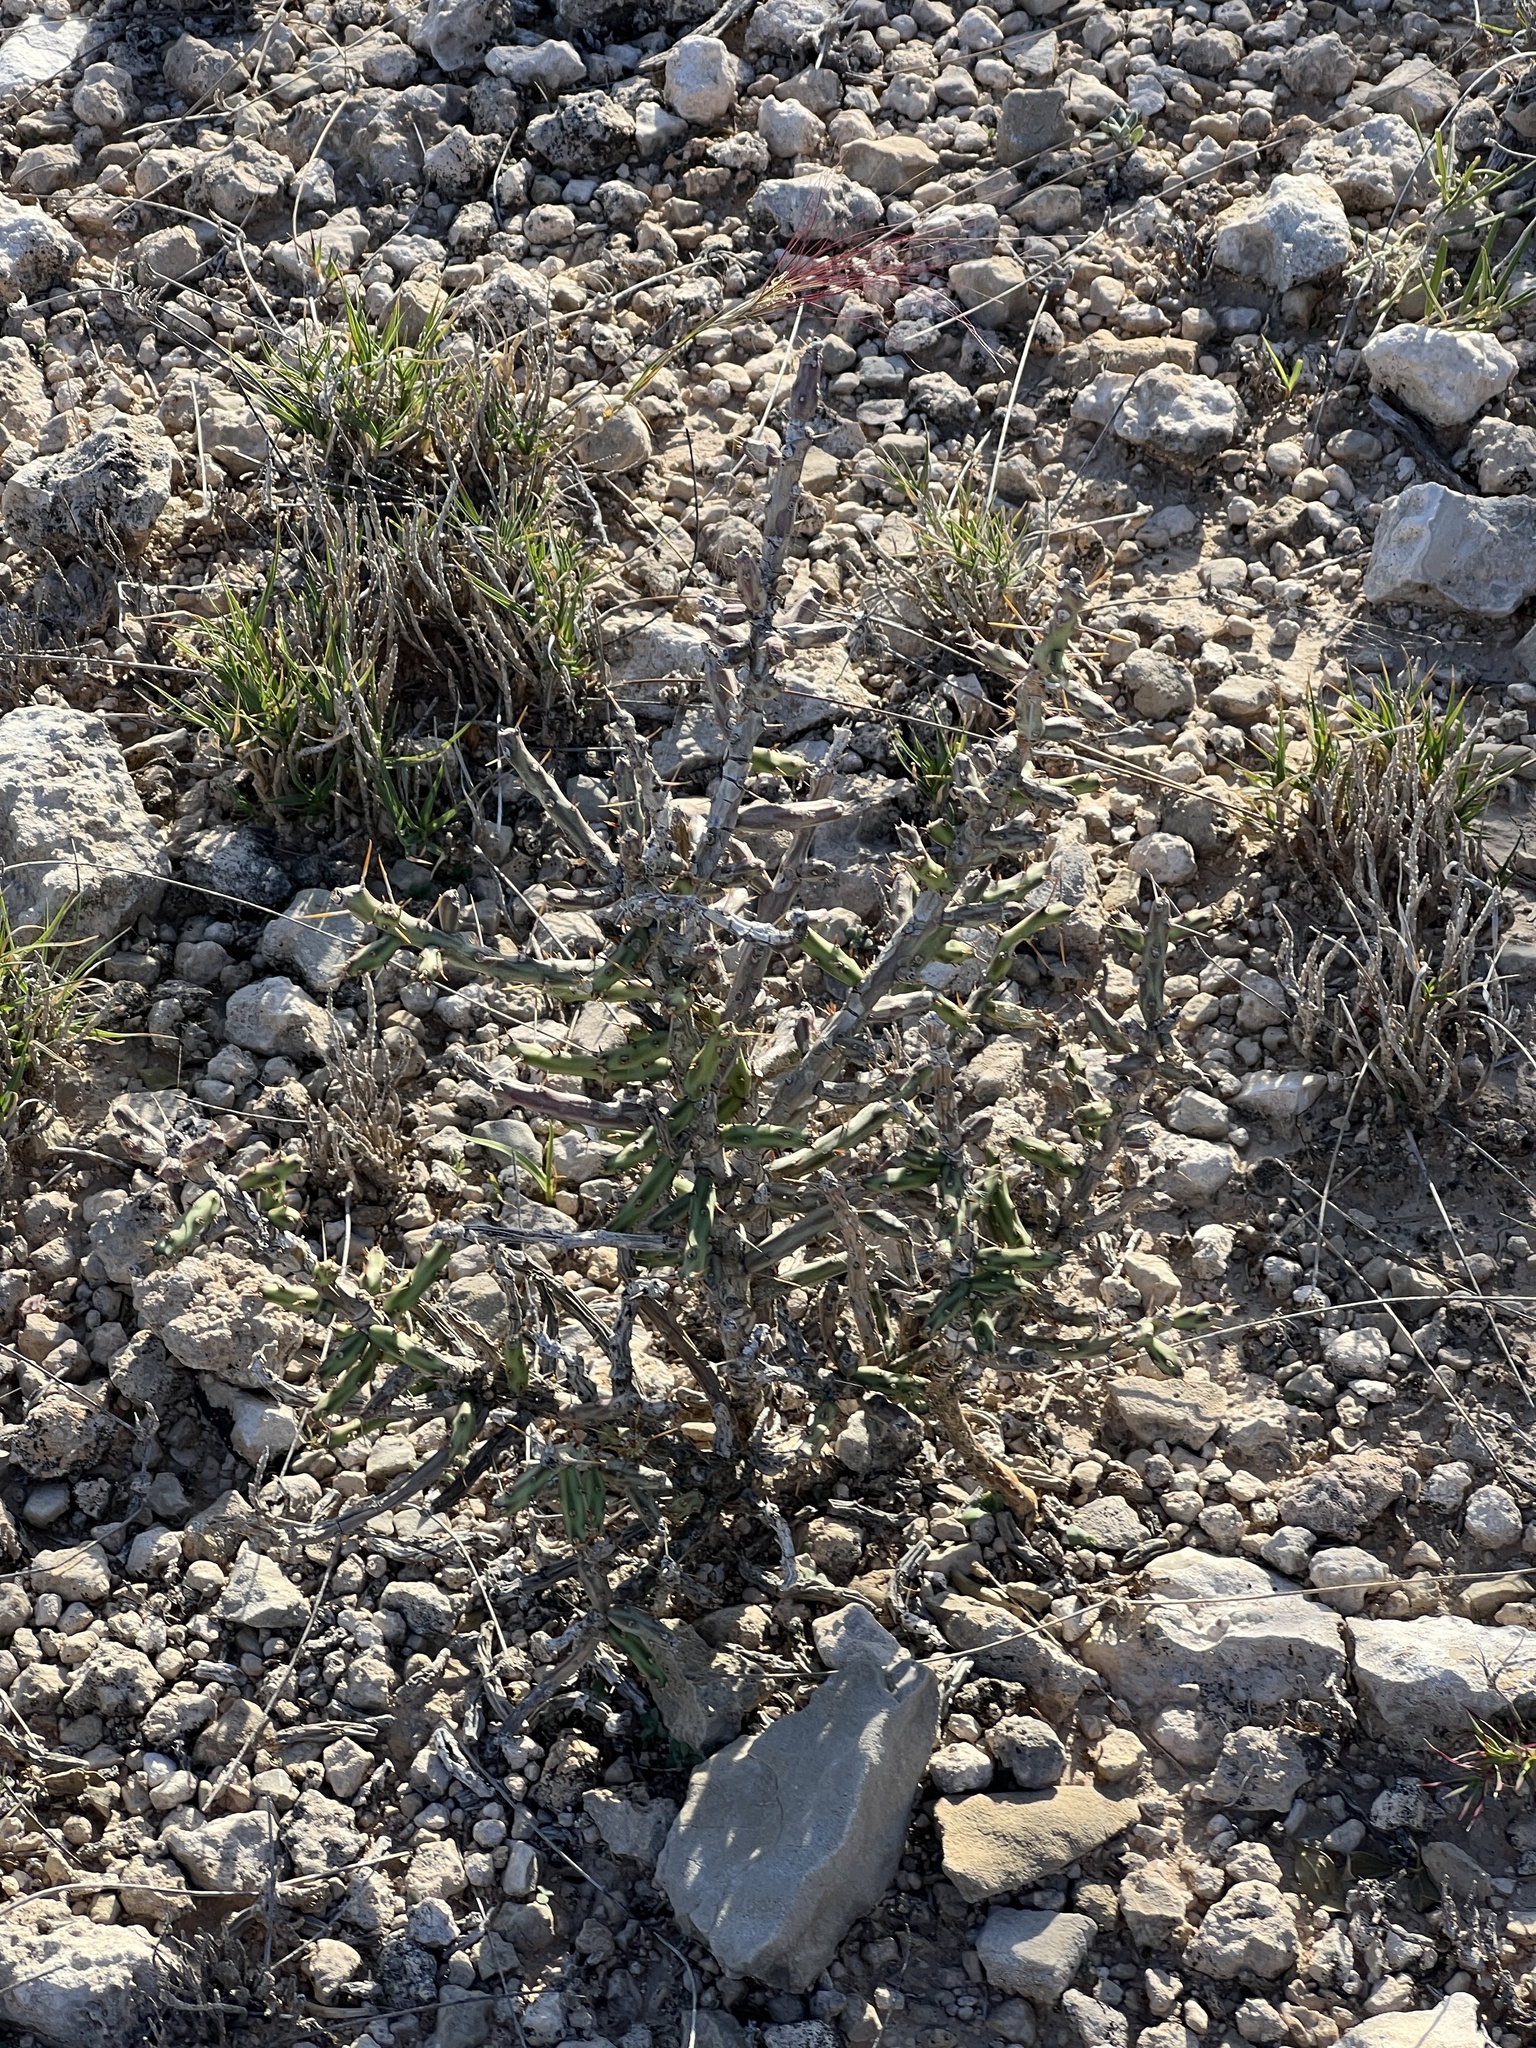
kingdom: Plantae
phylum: Tracheophyta
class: Magnoliopsida
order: Caryophyllales
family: Cactaceae
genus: Cylindropuntia
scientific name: Cylindropuntia leptocaulis
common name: Christmas cactus
